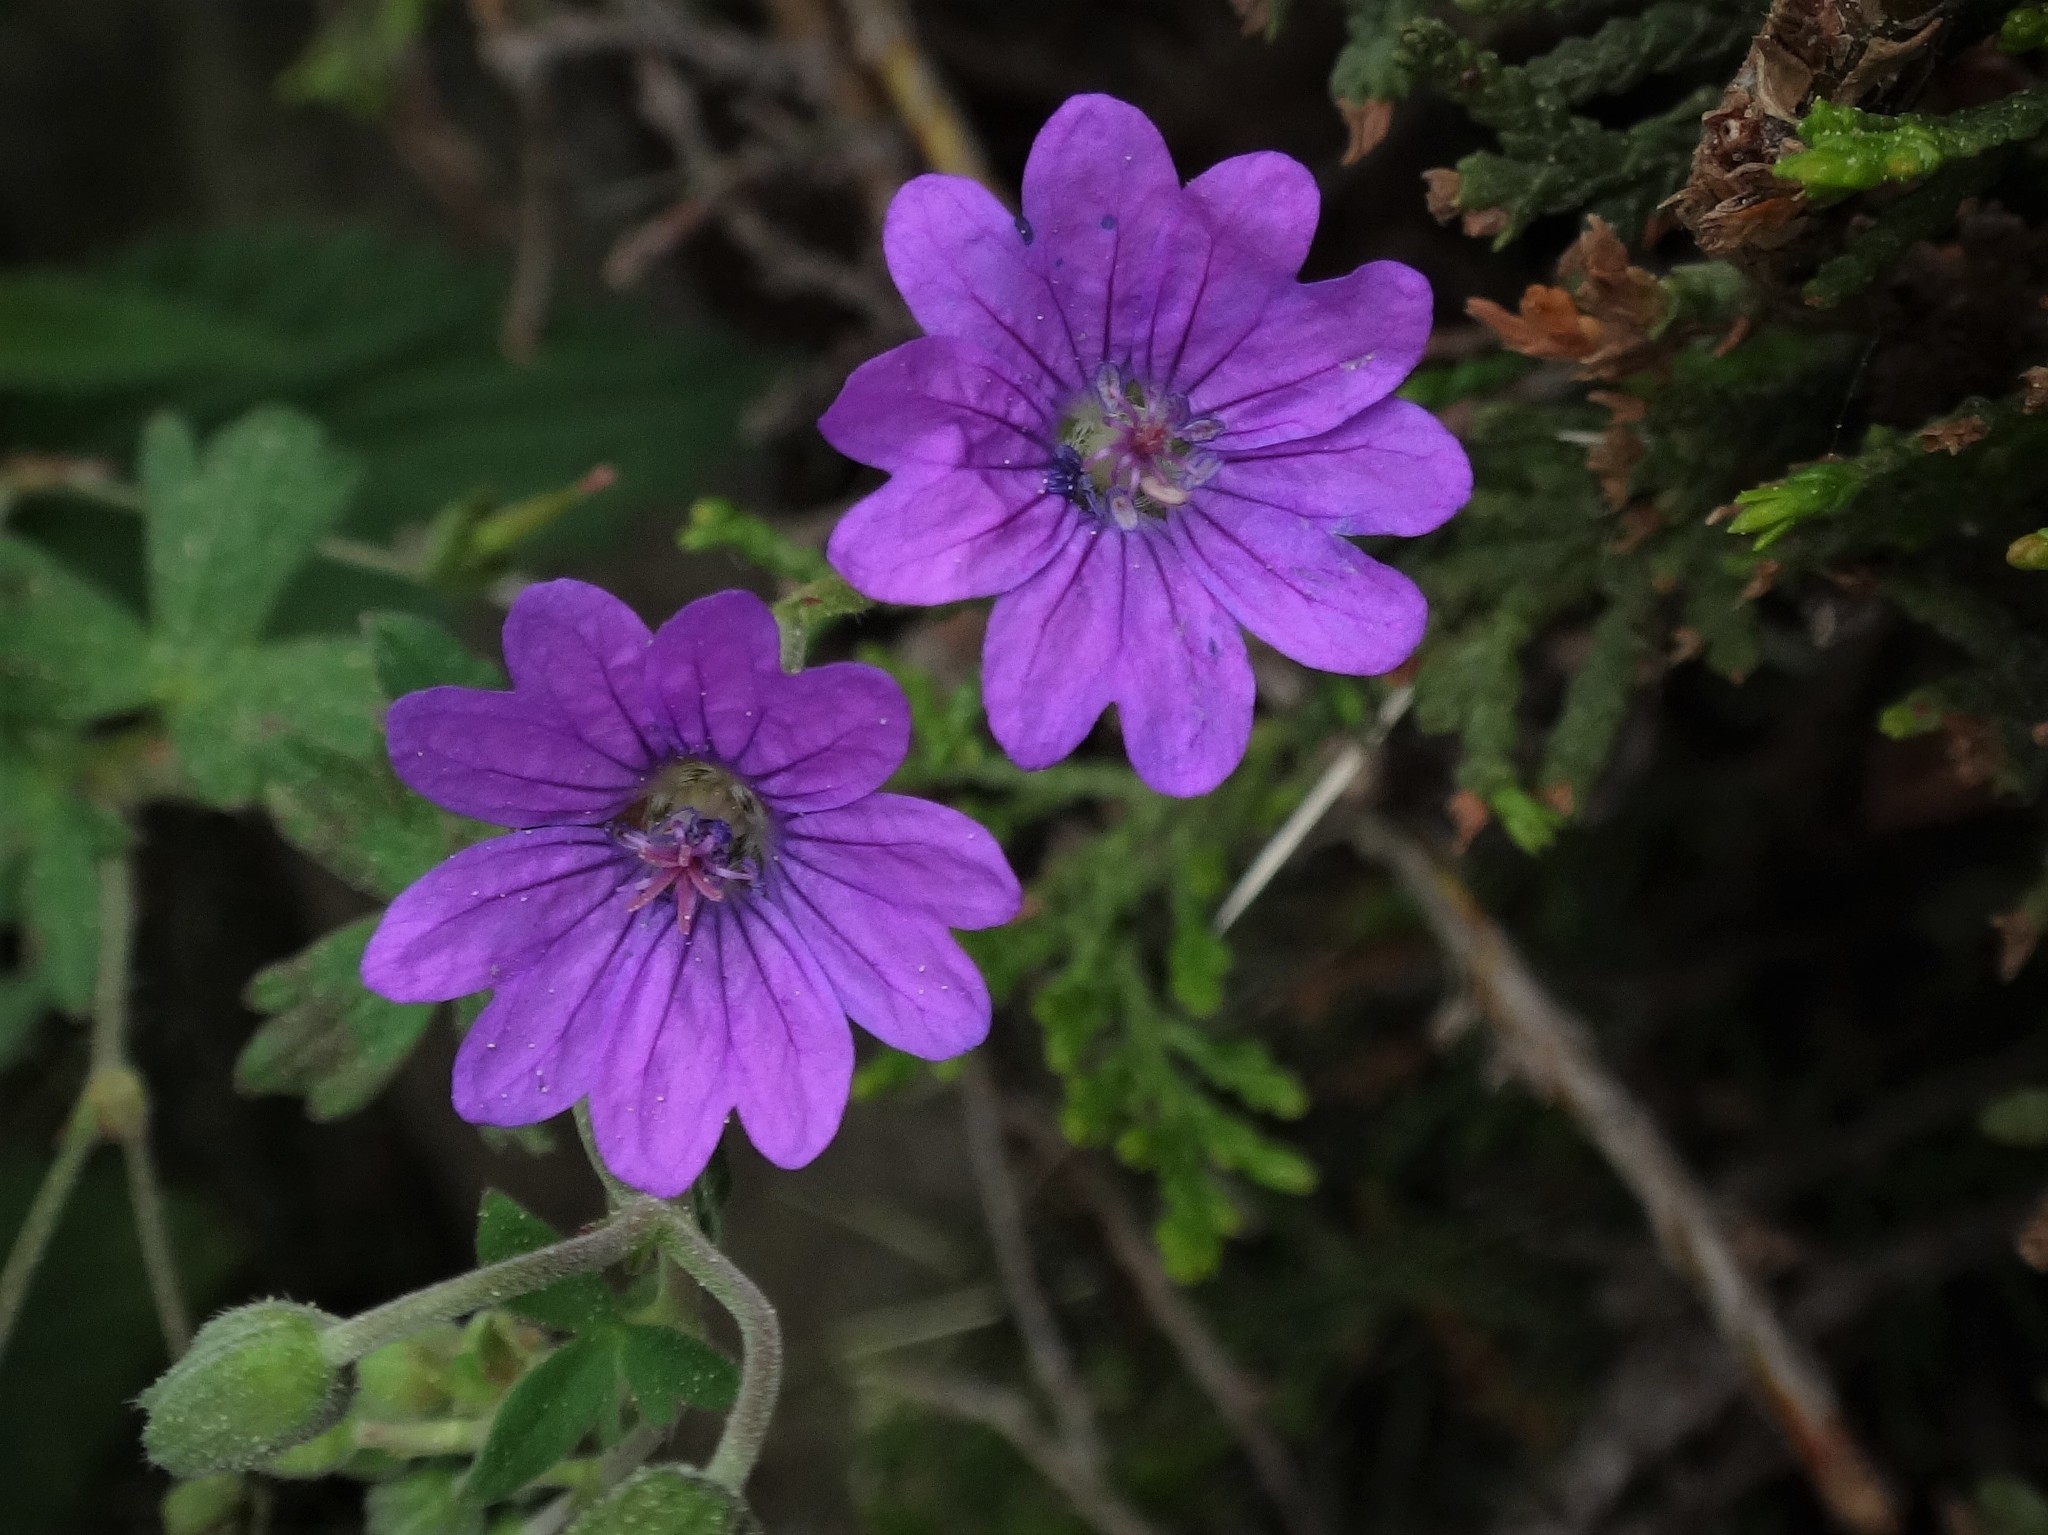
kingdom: Plantae
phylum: Tracheophyta
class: Magnoliopsida
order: Geraniales
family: Geraniaceae
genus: Geranium
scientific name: Geranium pyrenaicum
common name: Hedgerow crane's-bill
